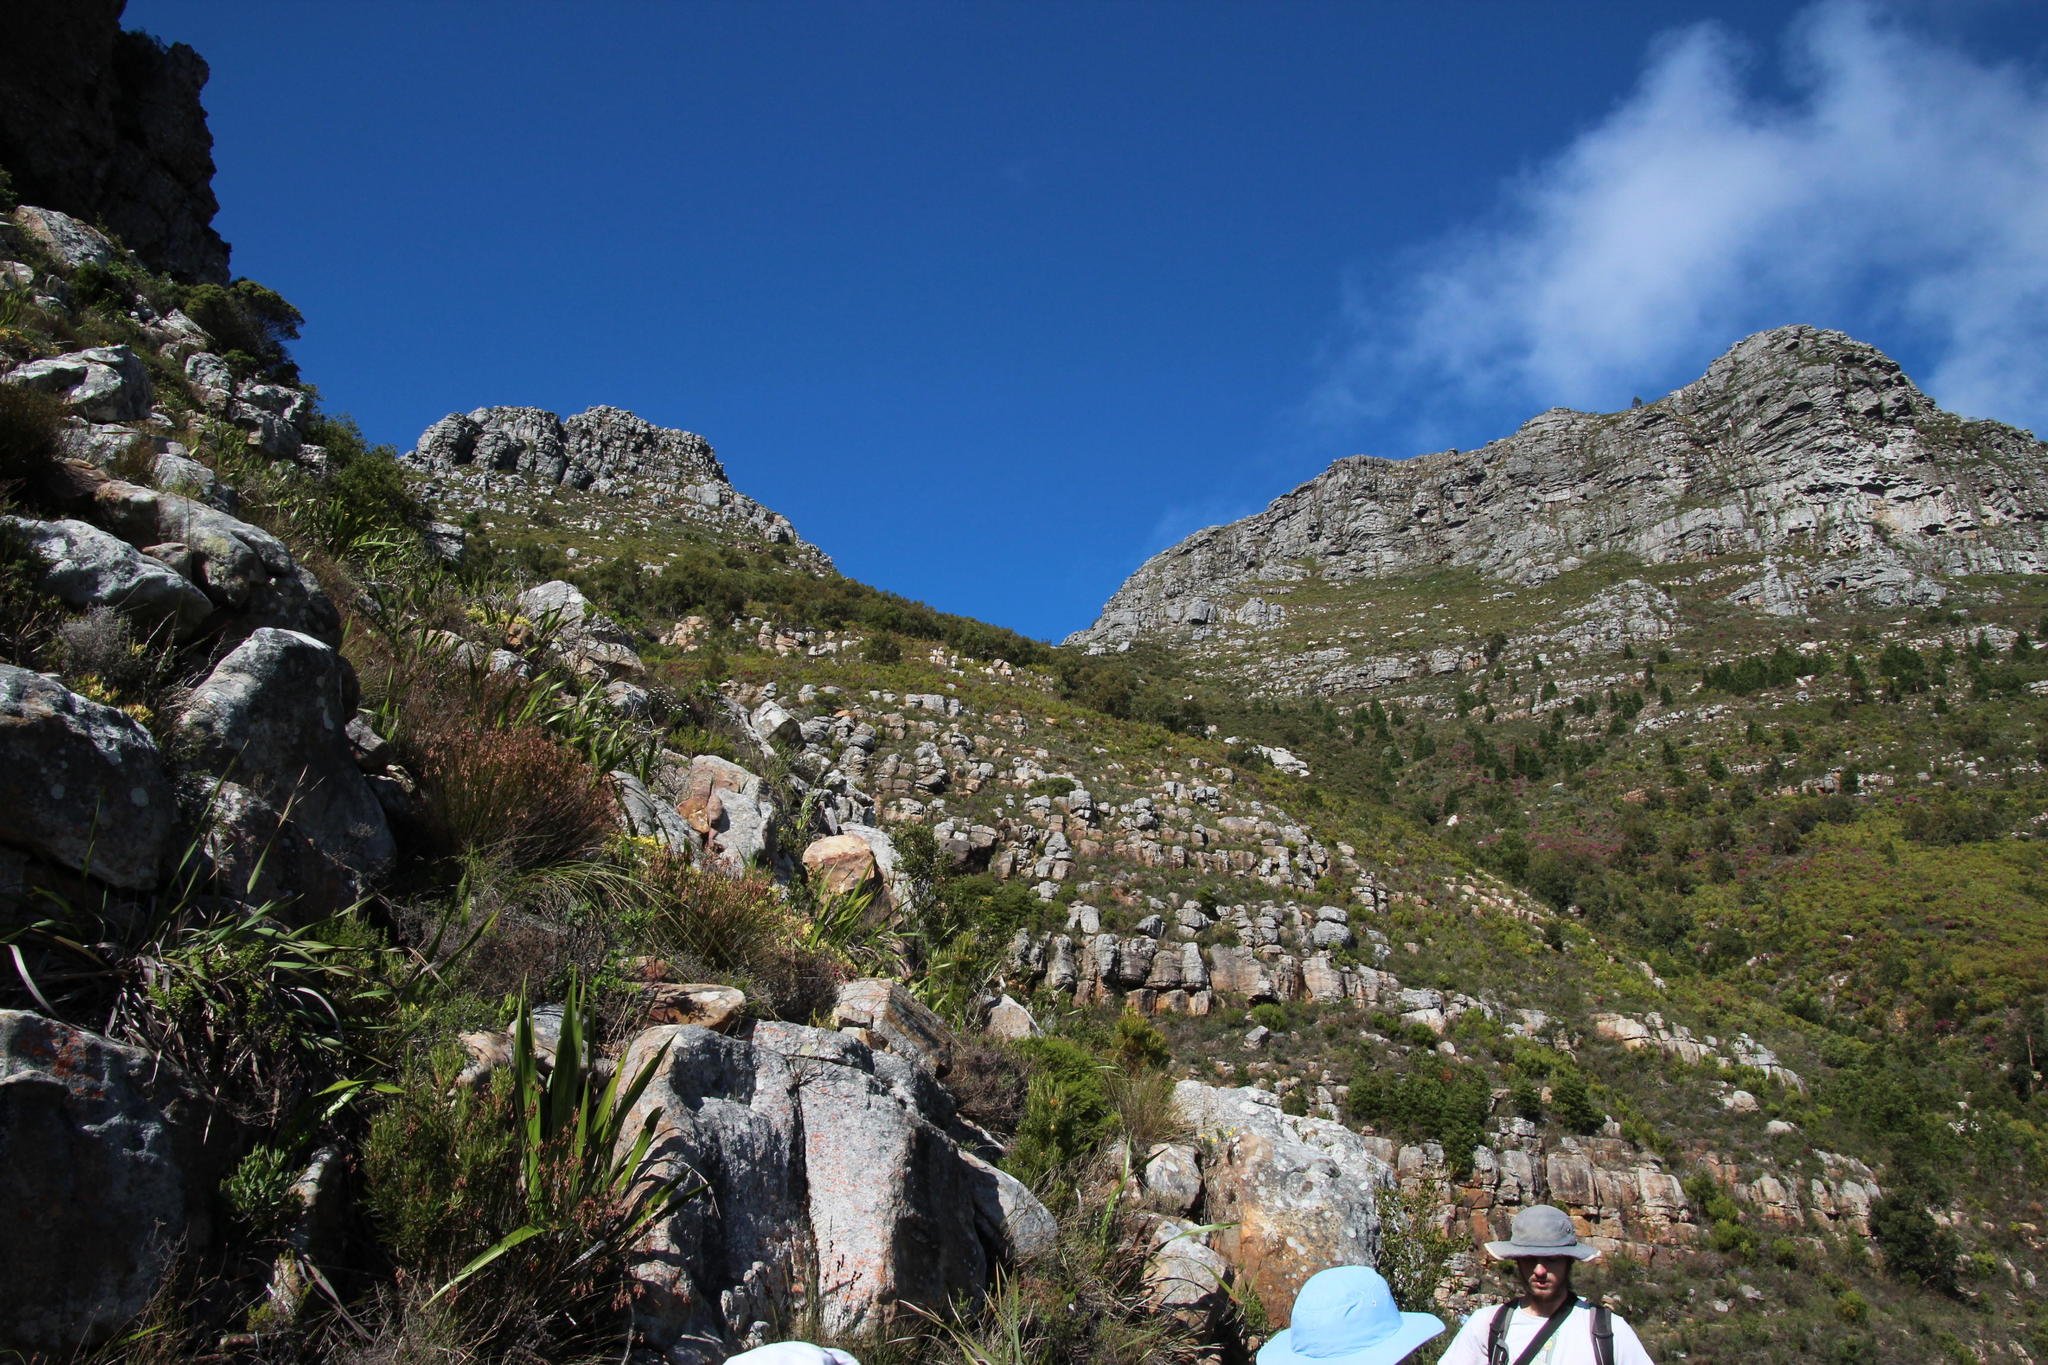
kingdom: Plantae
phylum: Tracheophyta
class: Pinopsida
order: Pinales
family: Pinaceae
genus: Pinus
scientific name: Pinus canariensis
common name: Canary islands pine
